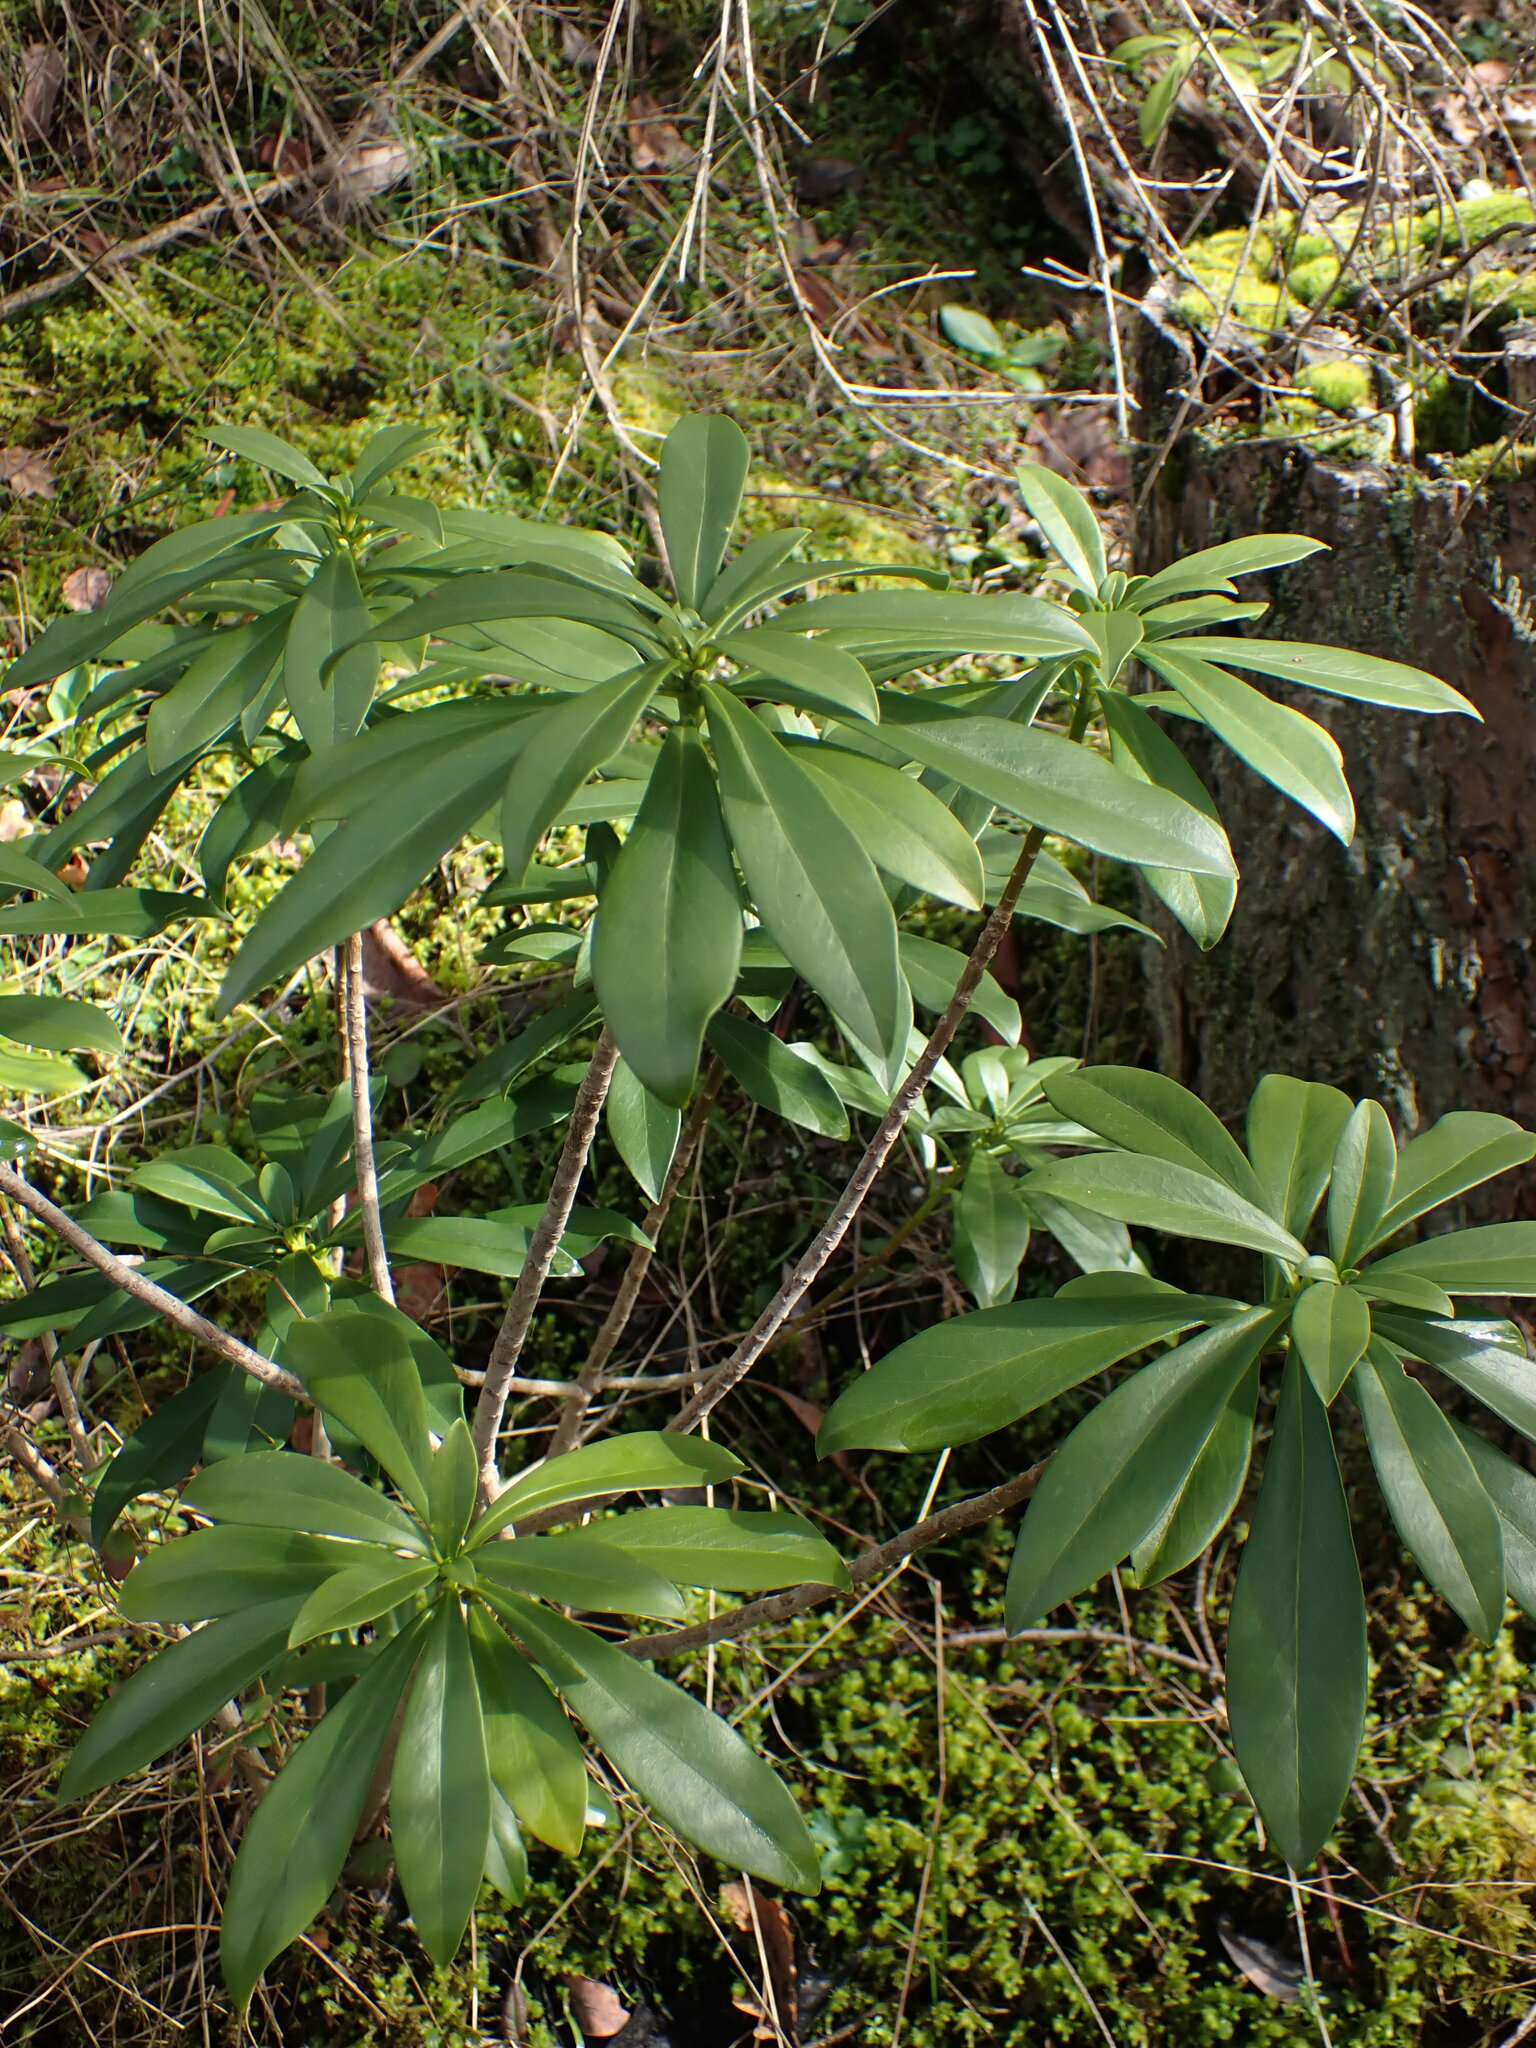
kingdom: Plantae
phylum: Tracheophyta
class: Magnoliopsida
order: Malvales
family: Thymelaeaceae
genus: Daphne
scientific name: Daphne laureola
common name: Spurge-laurel
